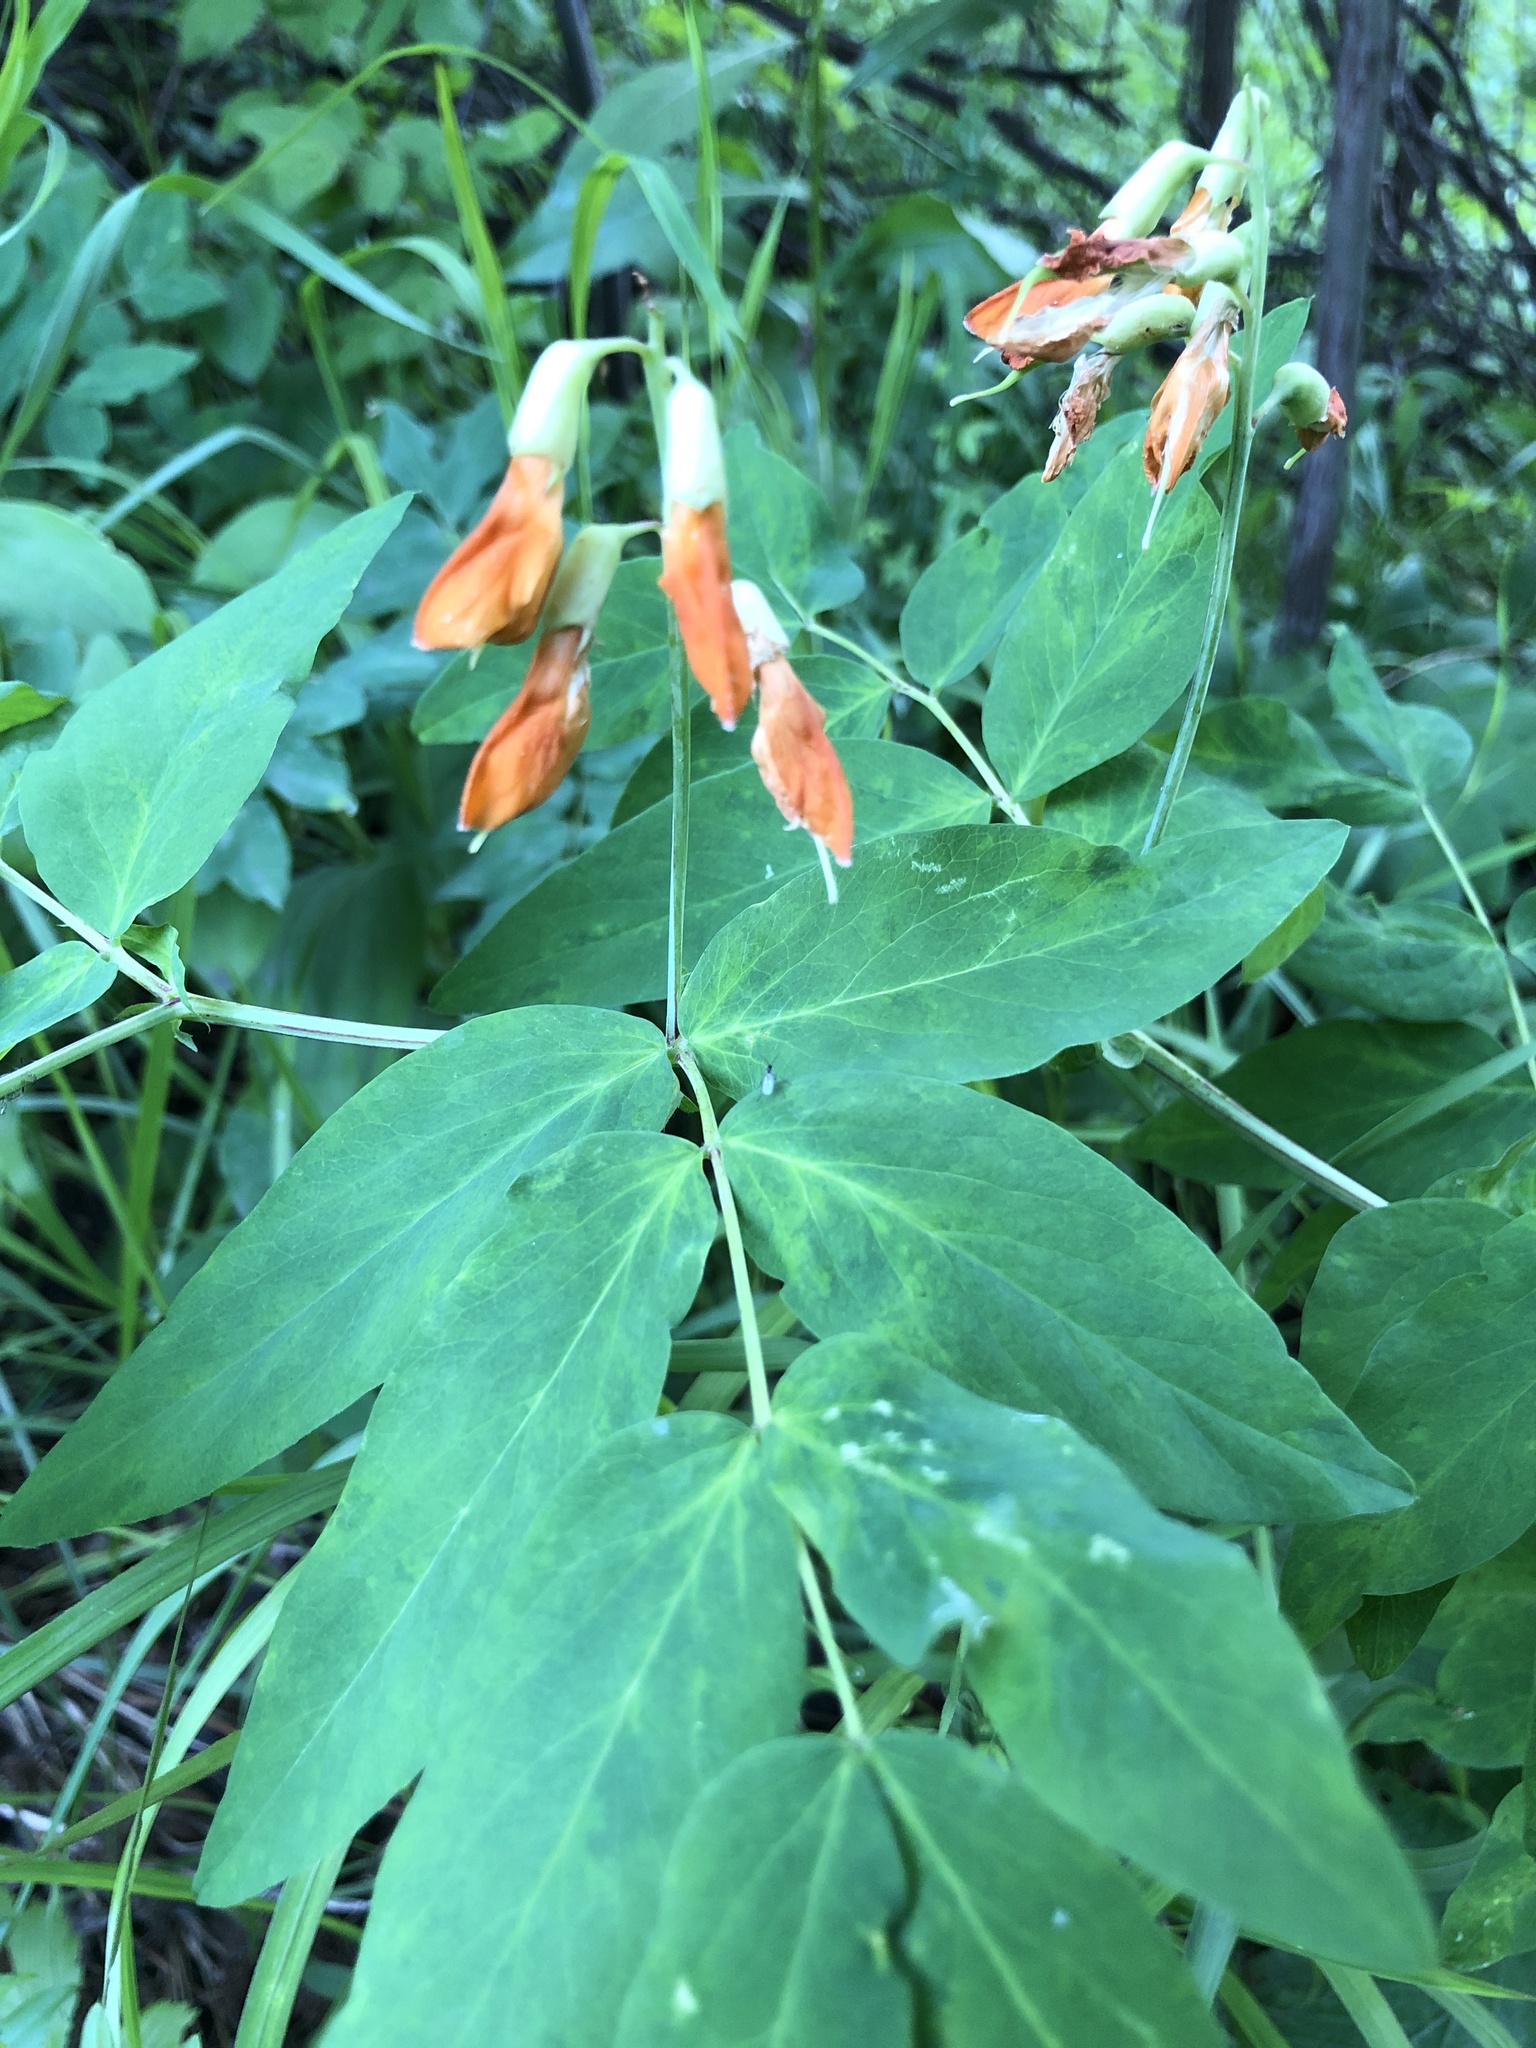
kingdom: Plantae
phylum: Tracheophyta
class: Magnoliopsida
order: Fabales
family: Fabaceae
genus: Lathyrus
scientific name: Lathyrus gmelinii
